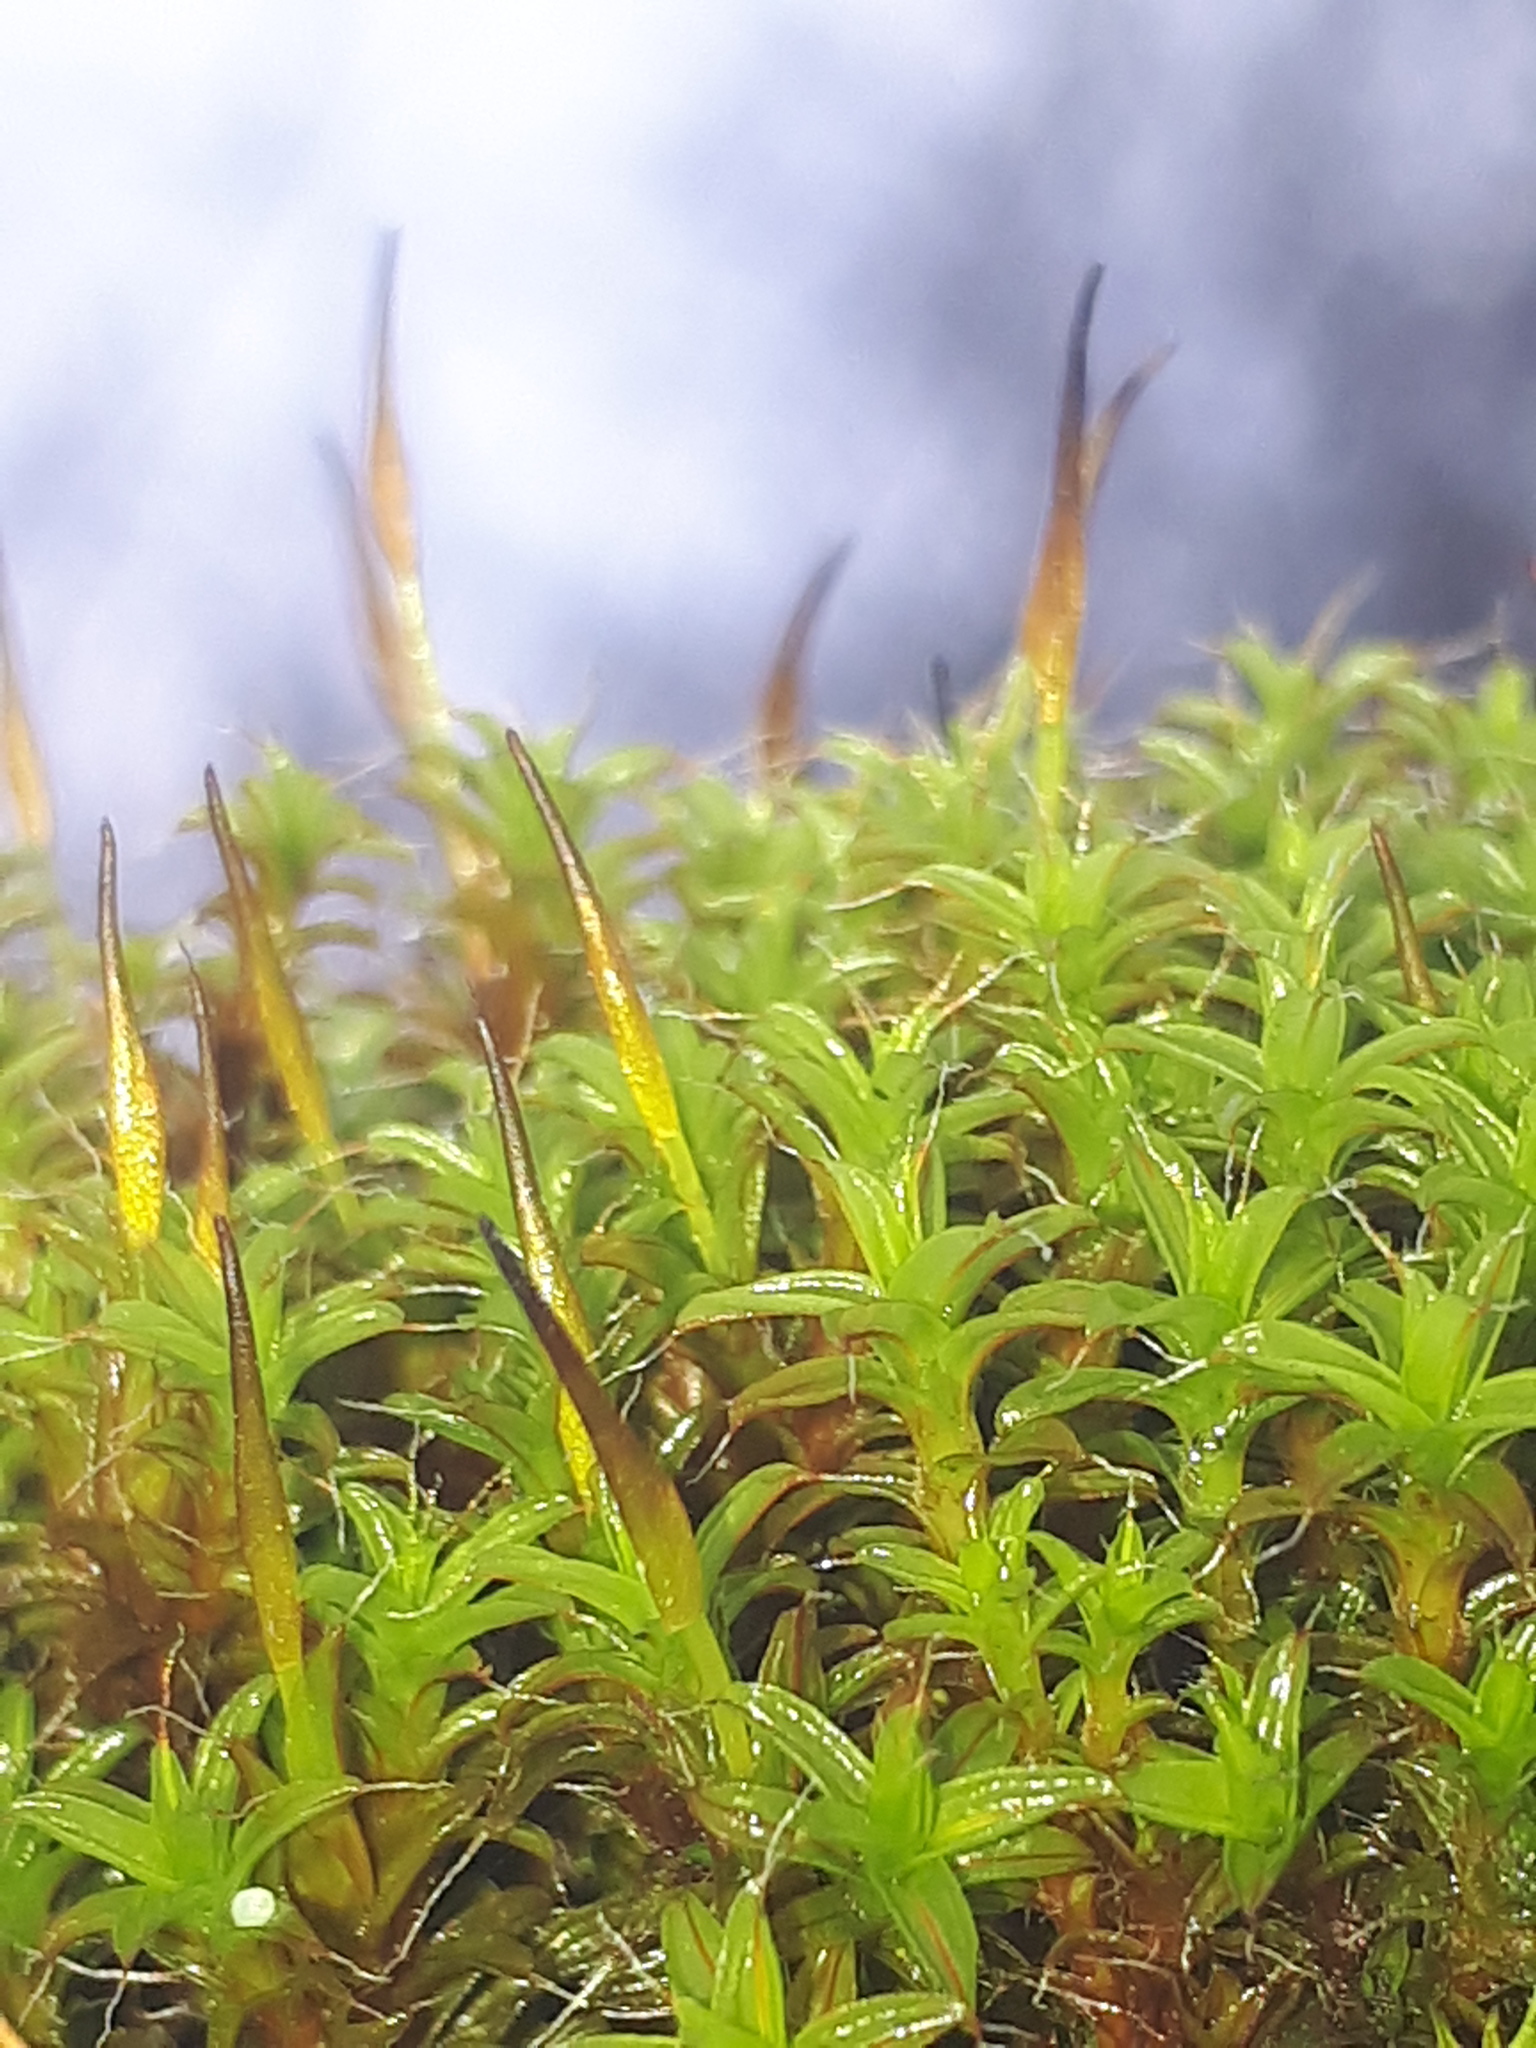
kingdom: Plantae
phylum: Bryophyta
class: Bryopsida
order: Pottiales
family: Pottiaceae
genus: Syntrichia
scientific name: Syntrichia ruralis
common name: Sidewalk screw moss
